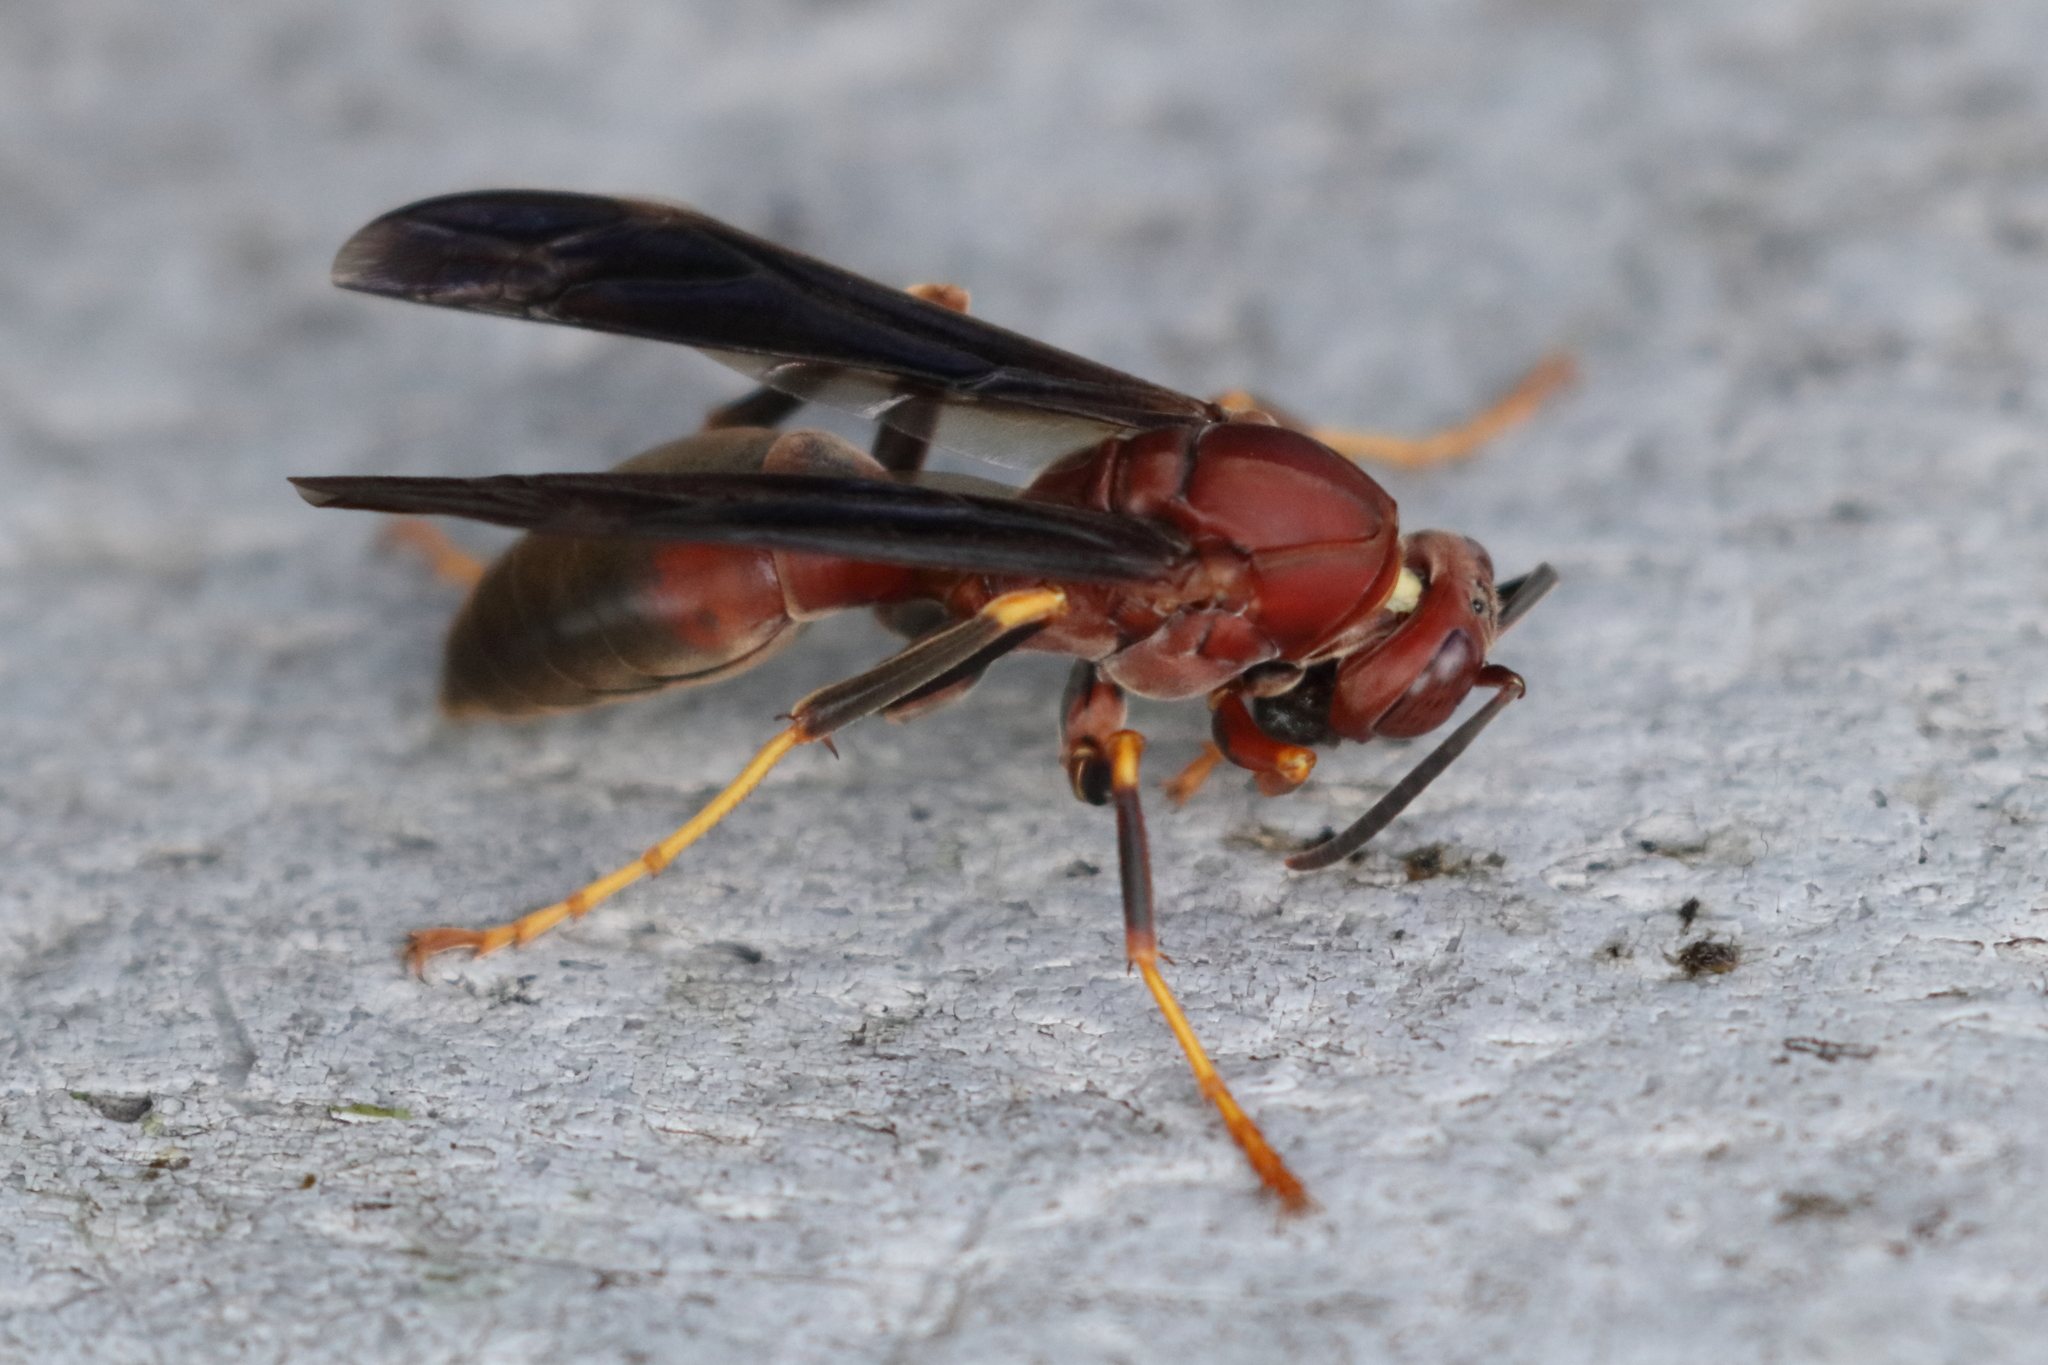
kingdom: Animalia
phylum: Arthropoda
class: Insecta
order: Hymenoptera
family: Eumenidae
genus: Polistes
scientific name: Polistes metricus
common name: Metric paper wasp
